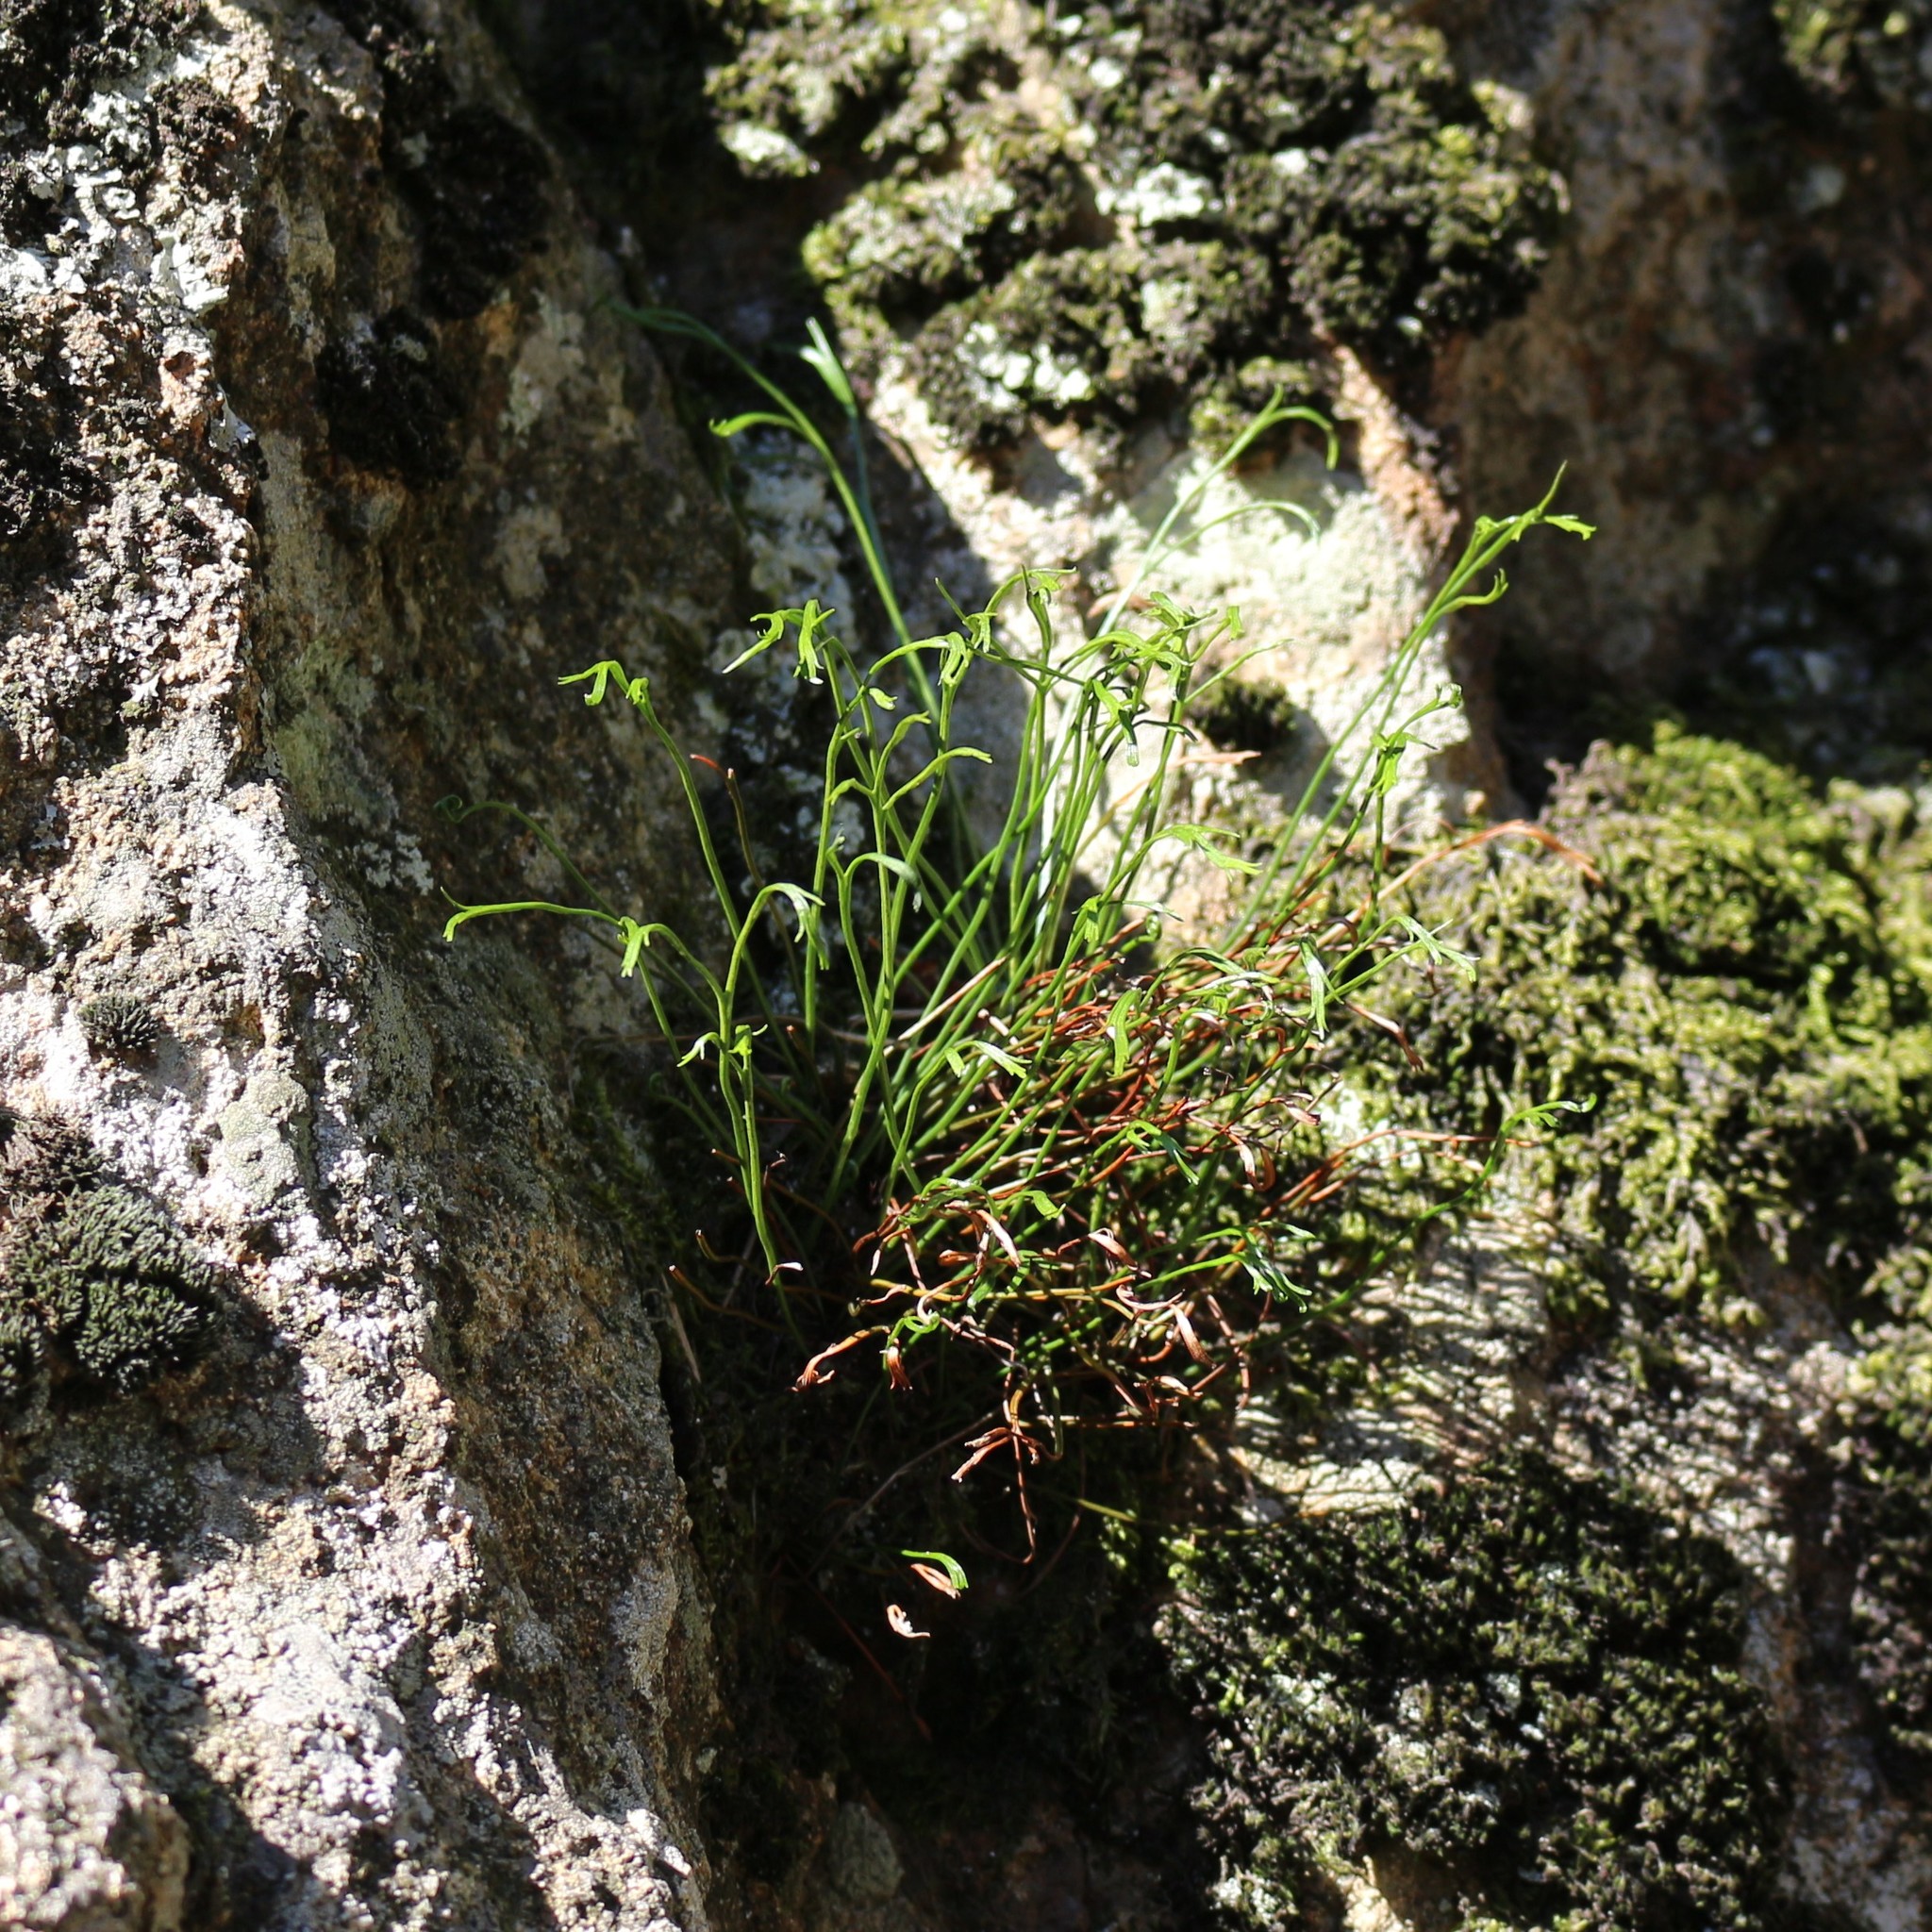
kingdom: Plantae
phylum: Tracheophyta
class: Polypodiopsida
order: Polypodiales
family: Aspleniaceae
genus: Asplenium
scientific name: Asplenium septentrionale
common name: Forked spleenwort
